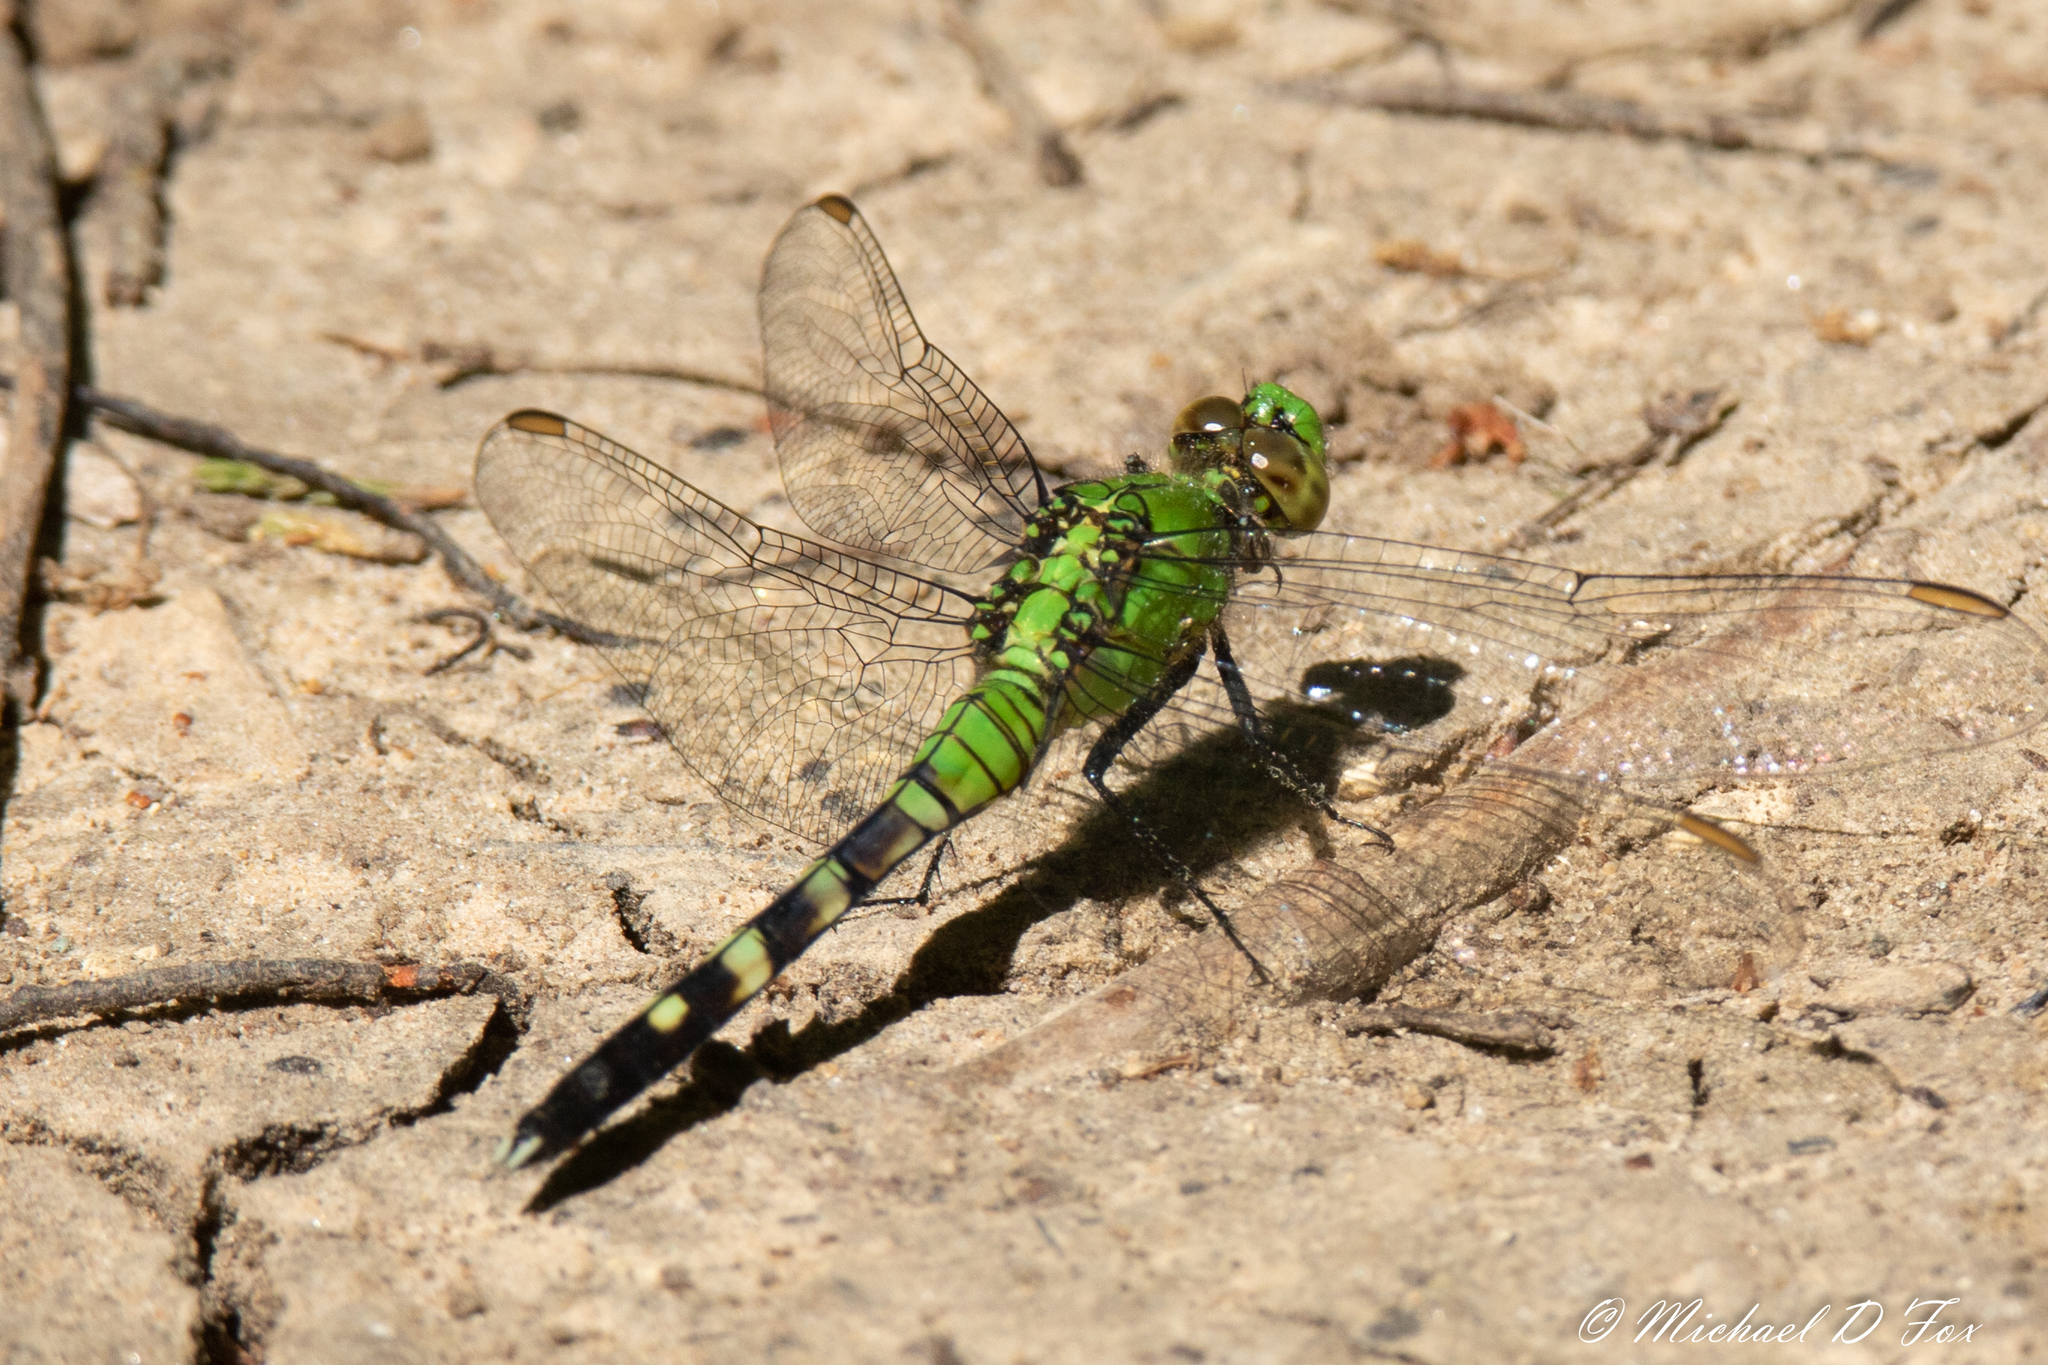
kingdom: Animalia
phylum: Arthropoda
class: Insecta
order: Odonata
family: Libellulidae
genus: Erythemis
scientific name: Erythemis simplicicollis
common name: Eastern pondhawk
